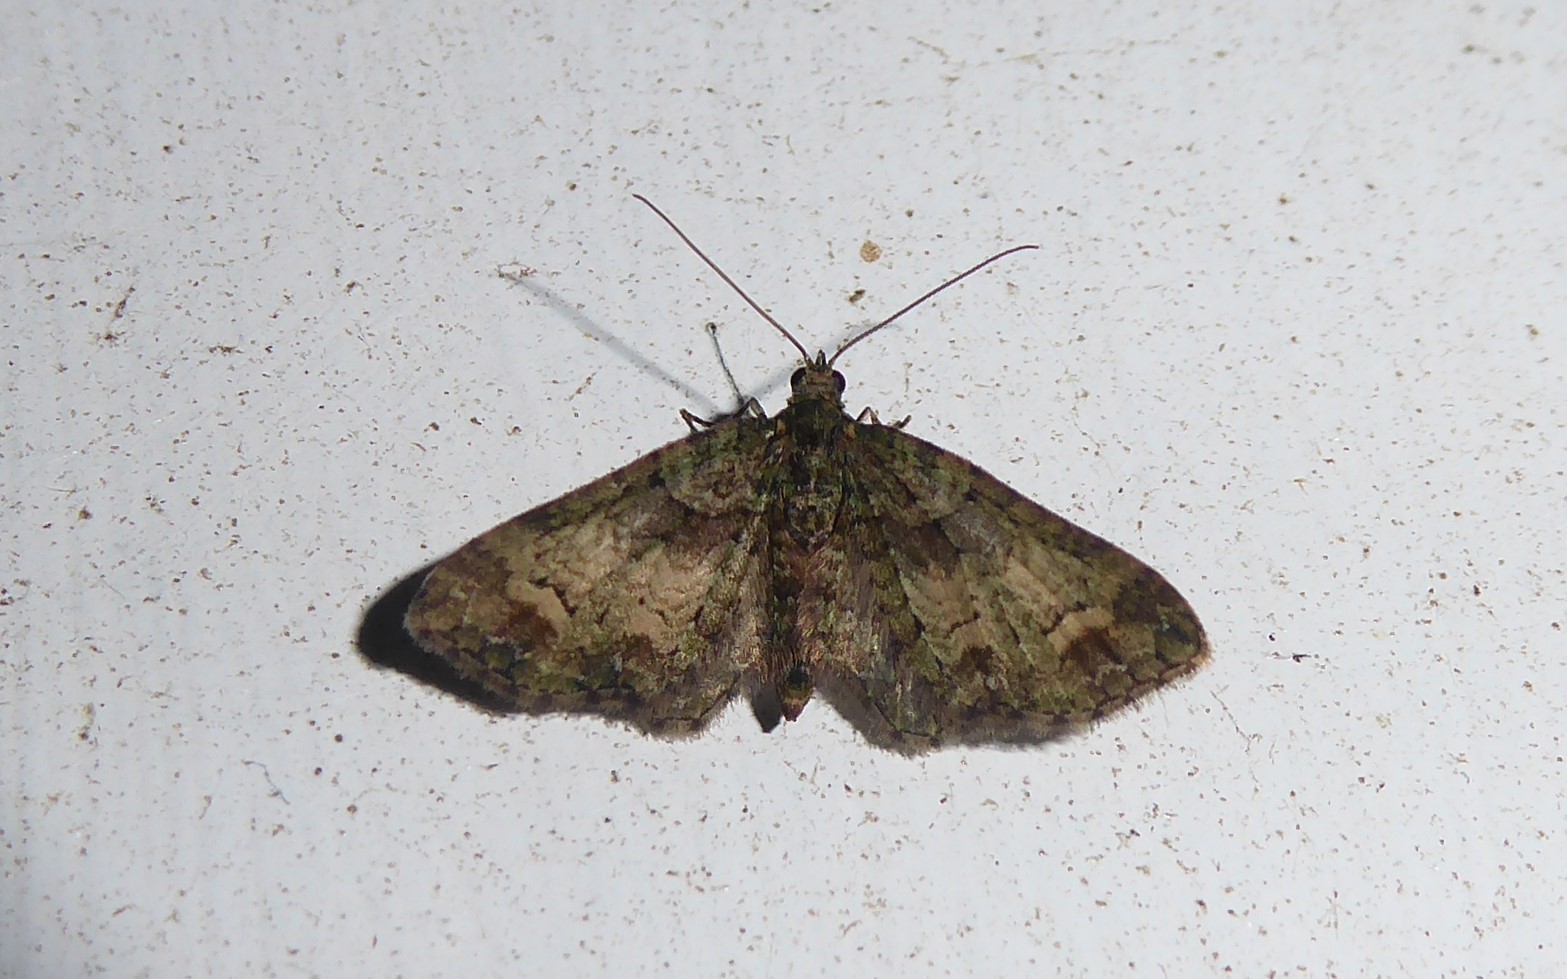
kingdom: Animalia
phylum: Arthropoda
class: Insecta
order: Lepidoptera
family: Geometridae
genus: Idaea
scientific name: Idaea mutanda
